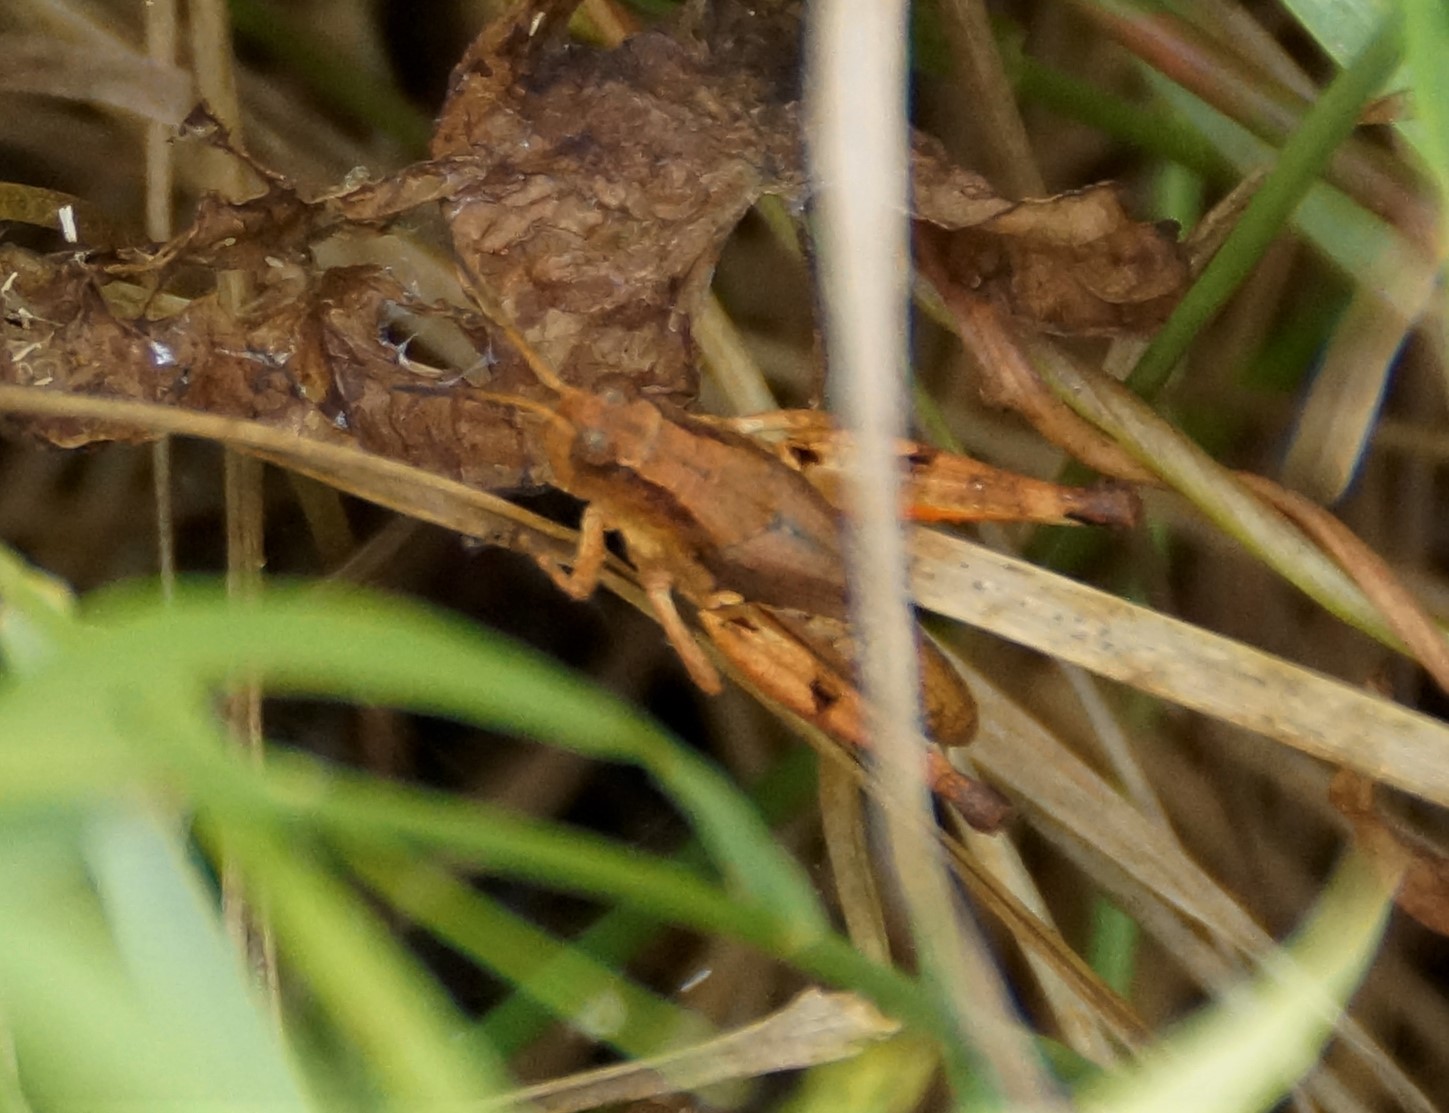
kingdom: Animalia
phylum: Arthropoda
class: Insecta
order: Orthoptera
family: Acrididae
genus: Phaulacridium
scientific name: Phaulacridium vittatum
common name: Wingless grasshopper
